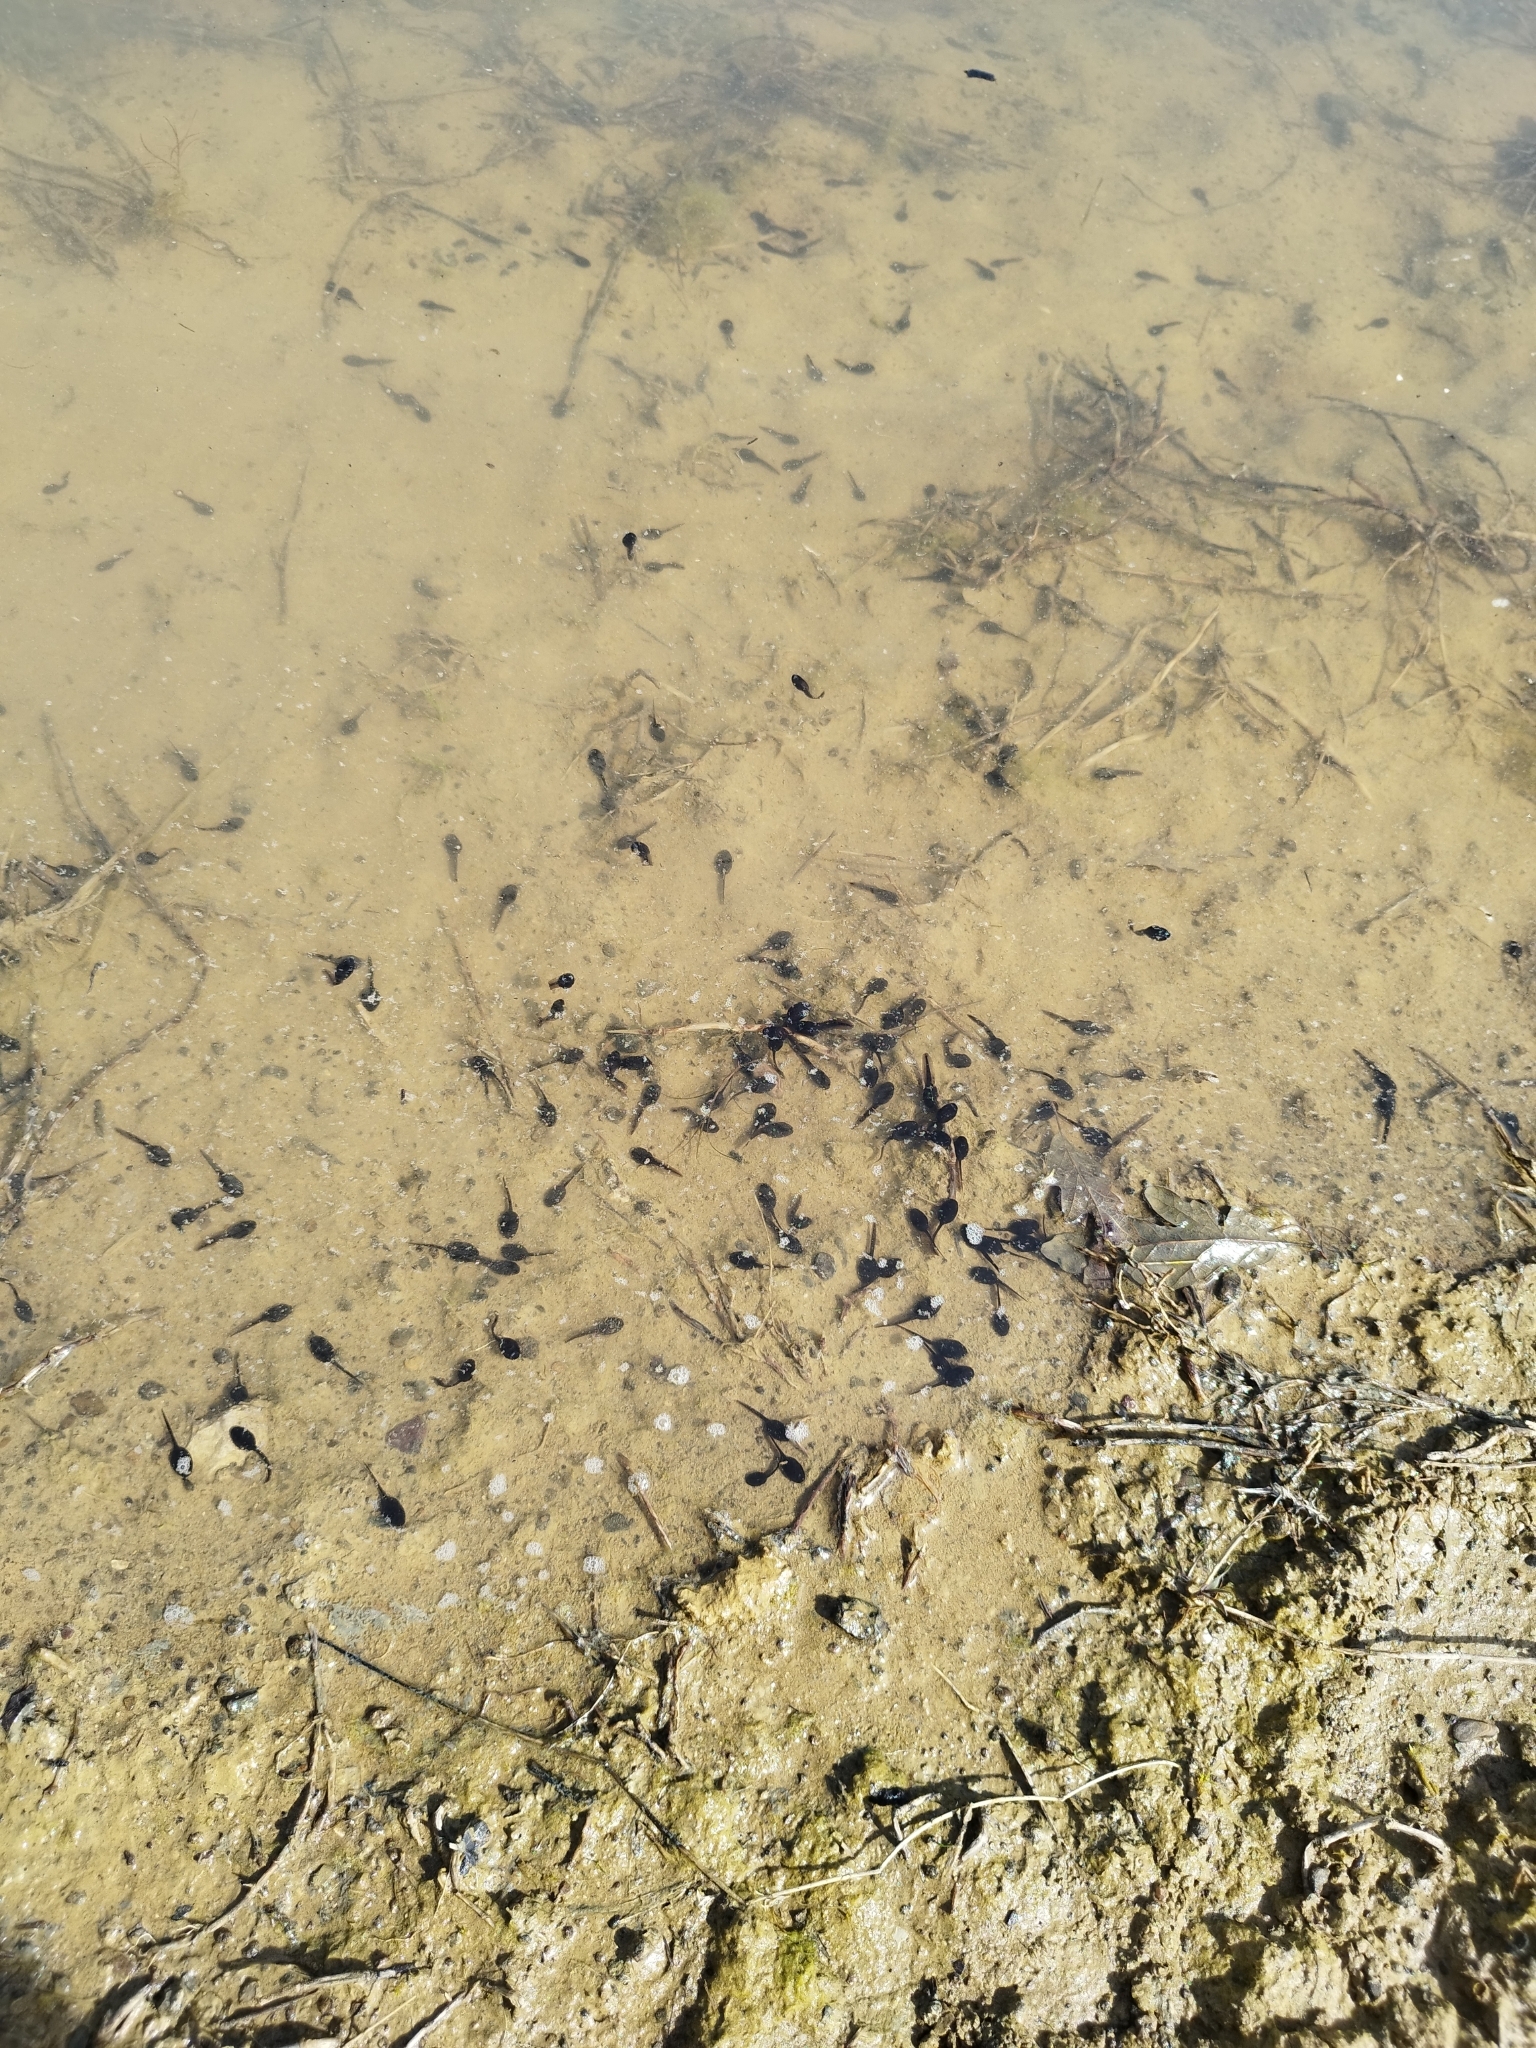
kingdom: Animalia
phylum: Chordata
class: Amphibia
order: Anura
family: Bufonidae
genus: Bufo
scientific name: Bufo bufo
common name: Common toad
